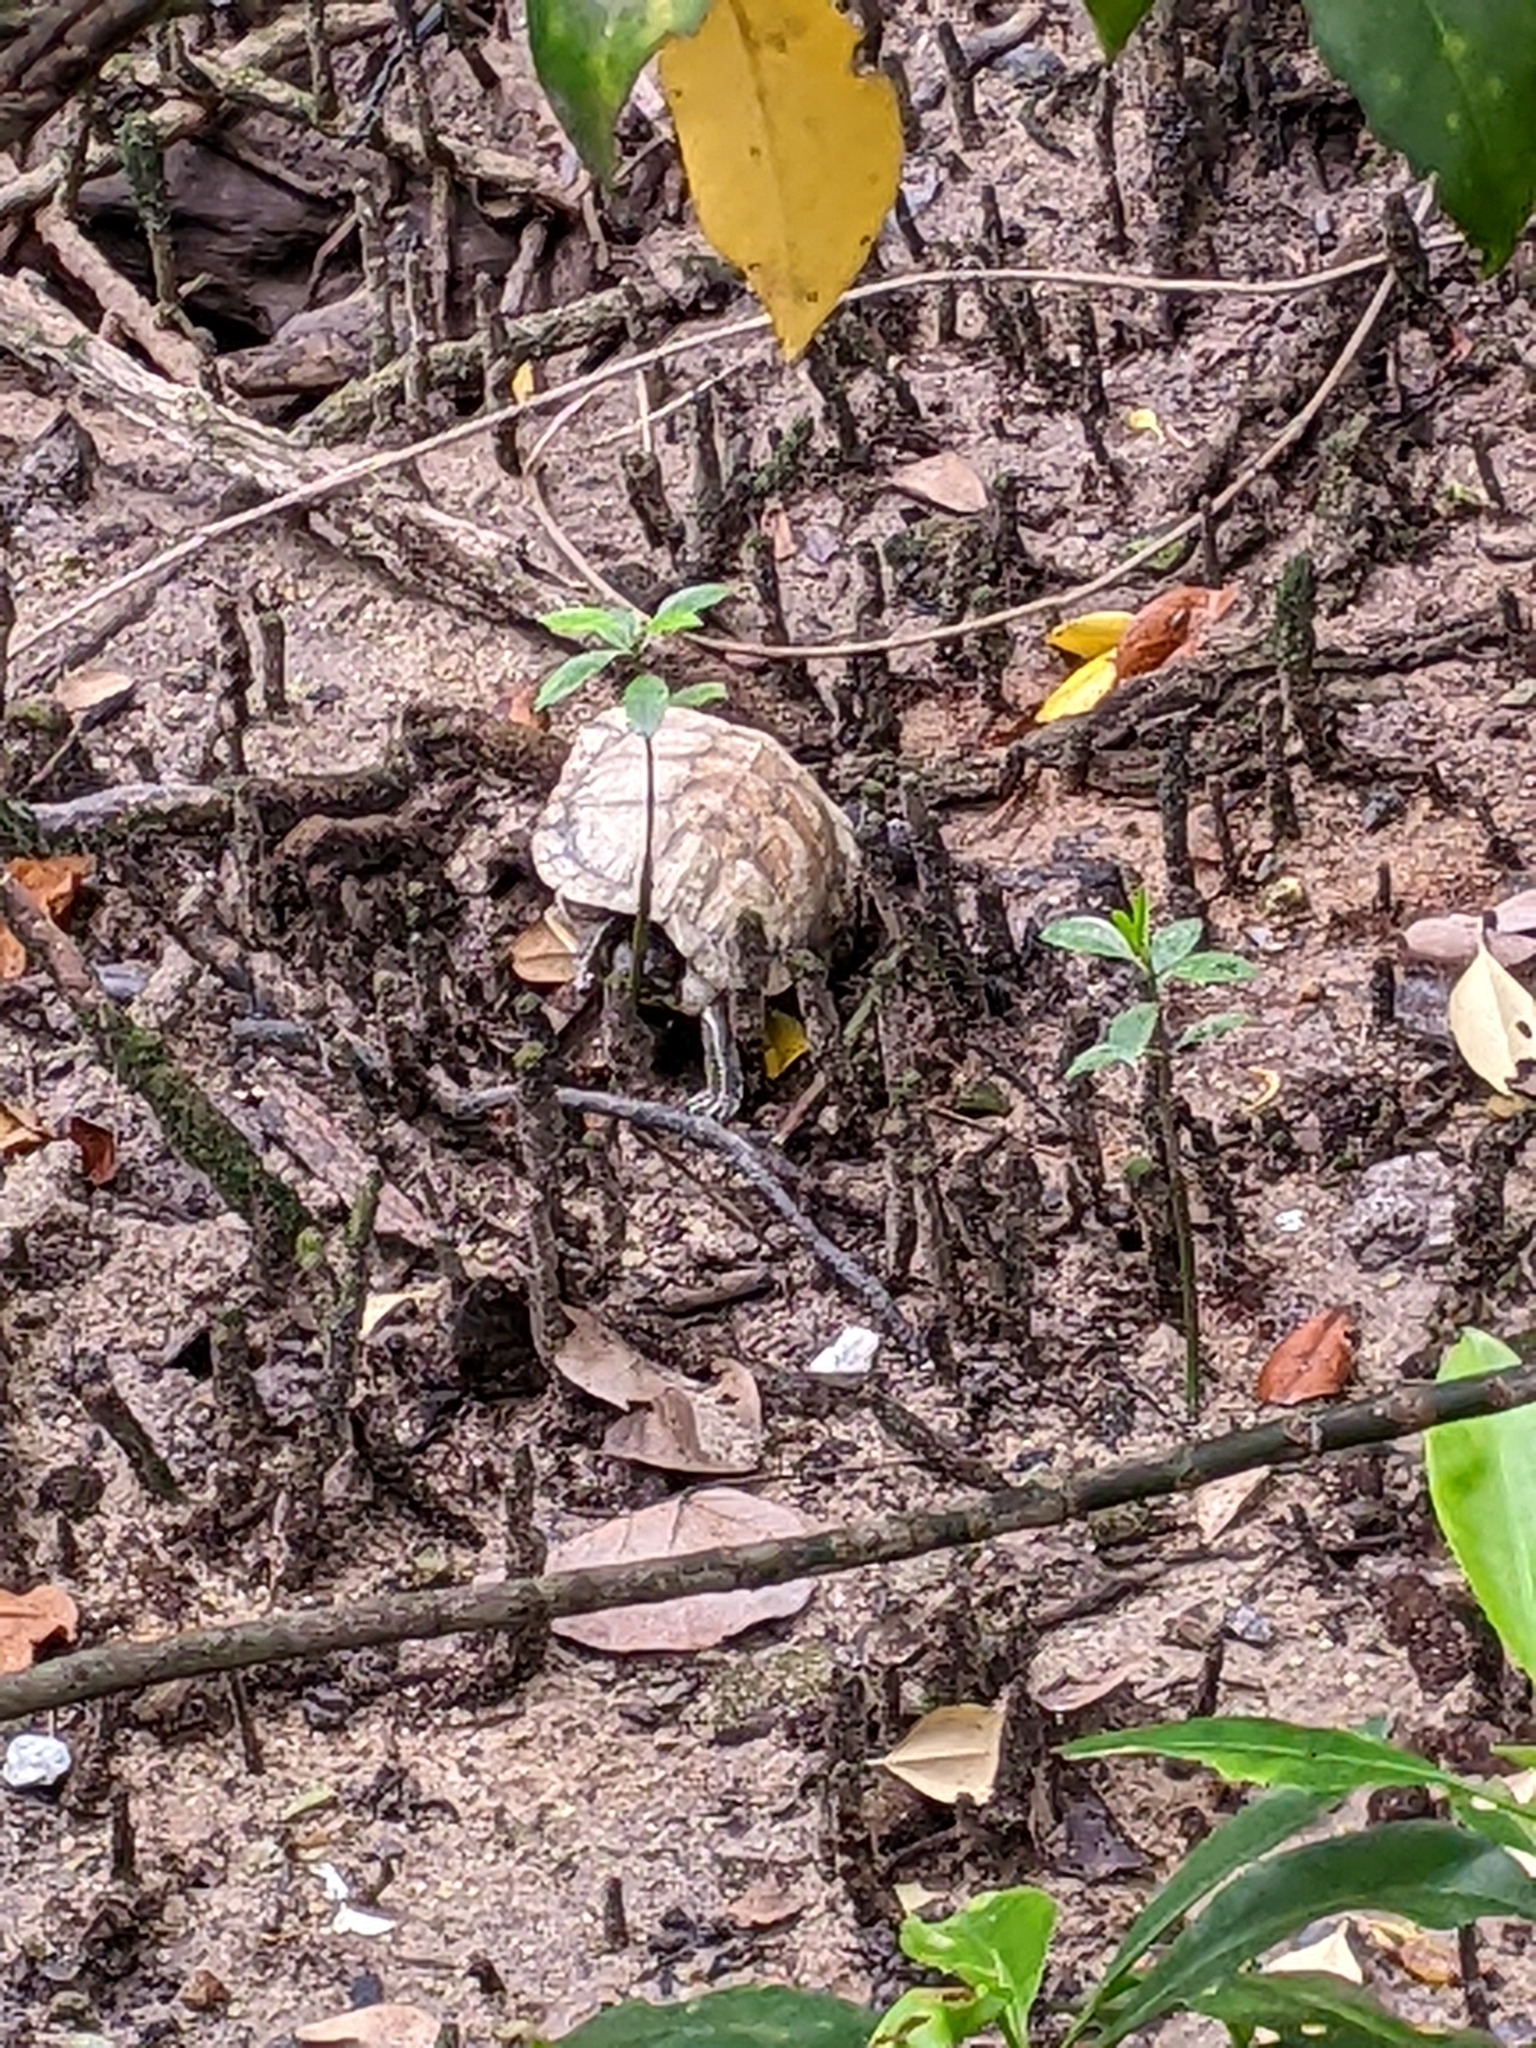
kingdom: Animalia
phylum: Chordata
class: Testudines
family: Emydidae
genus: Trachemys
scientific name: Trachemys scripta
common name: Slider
